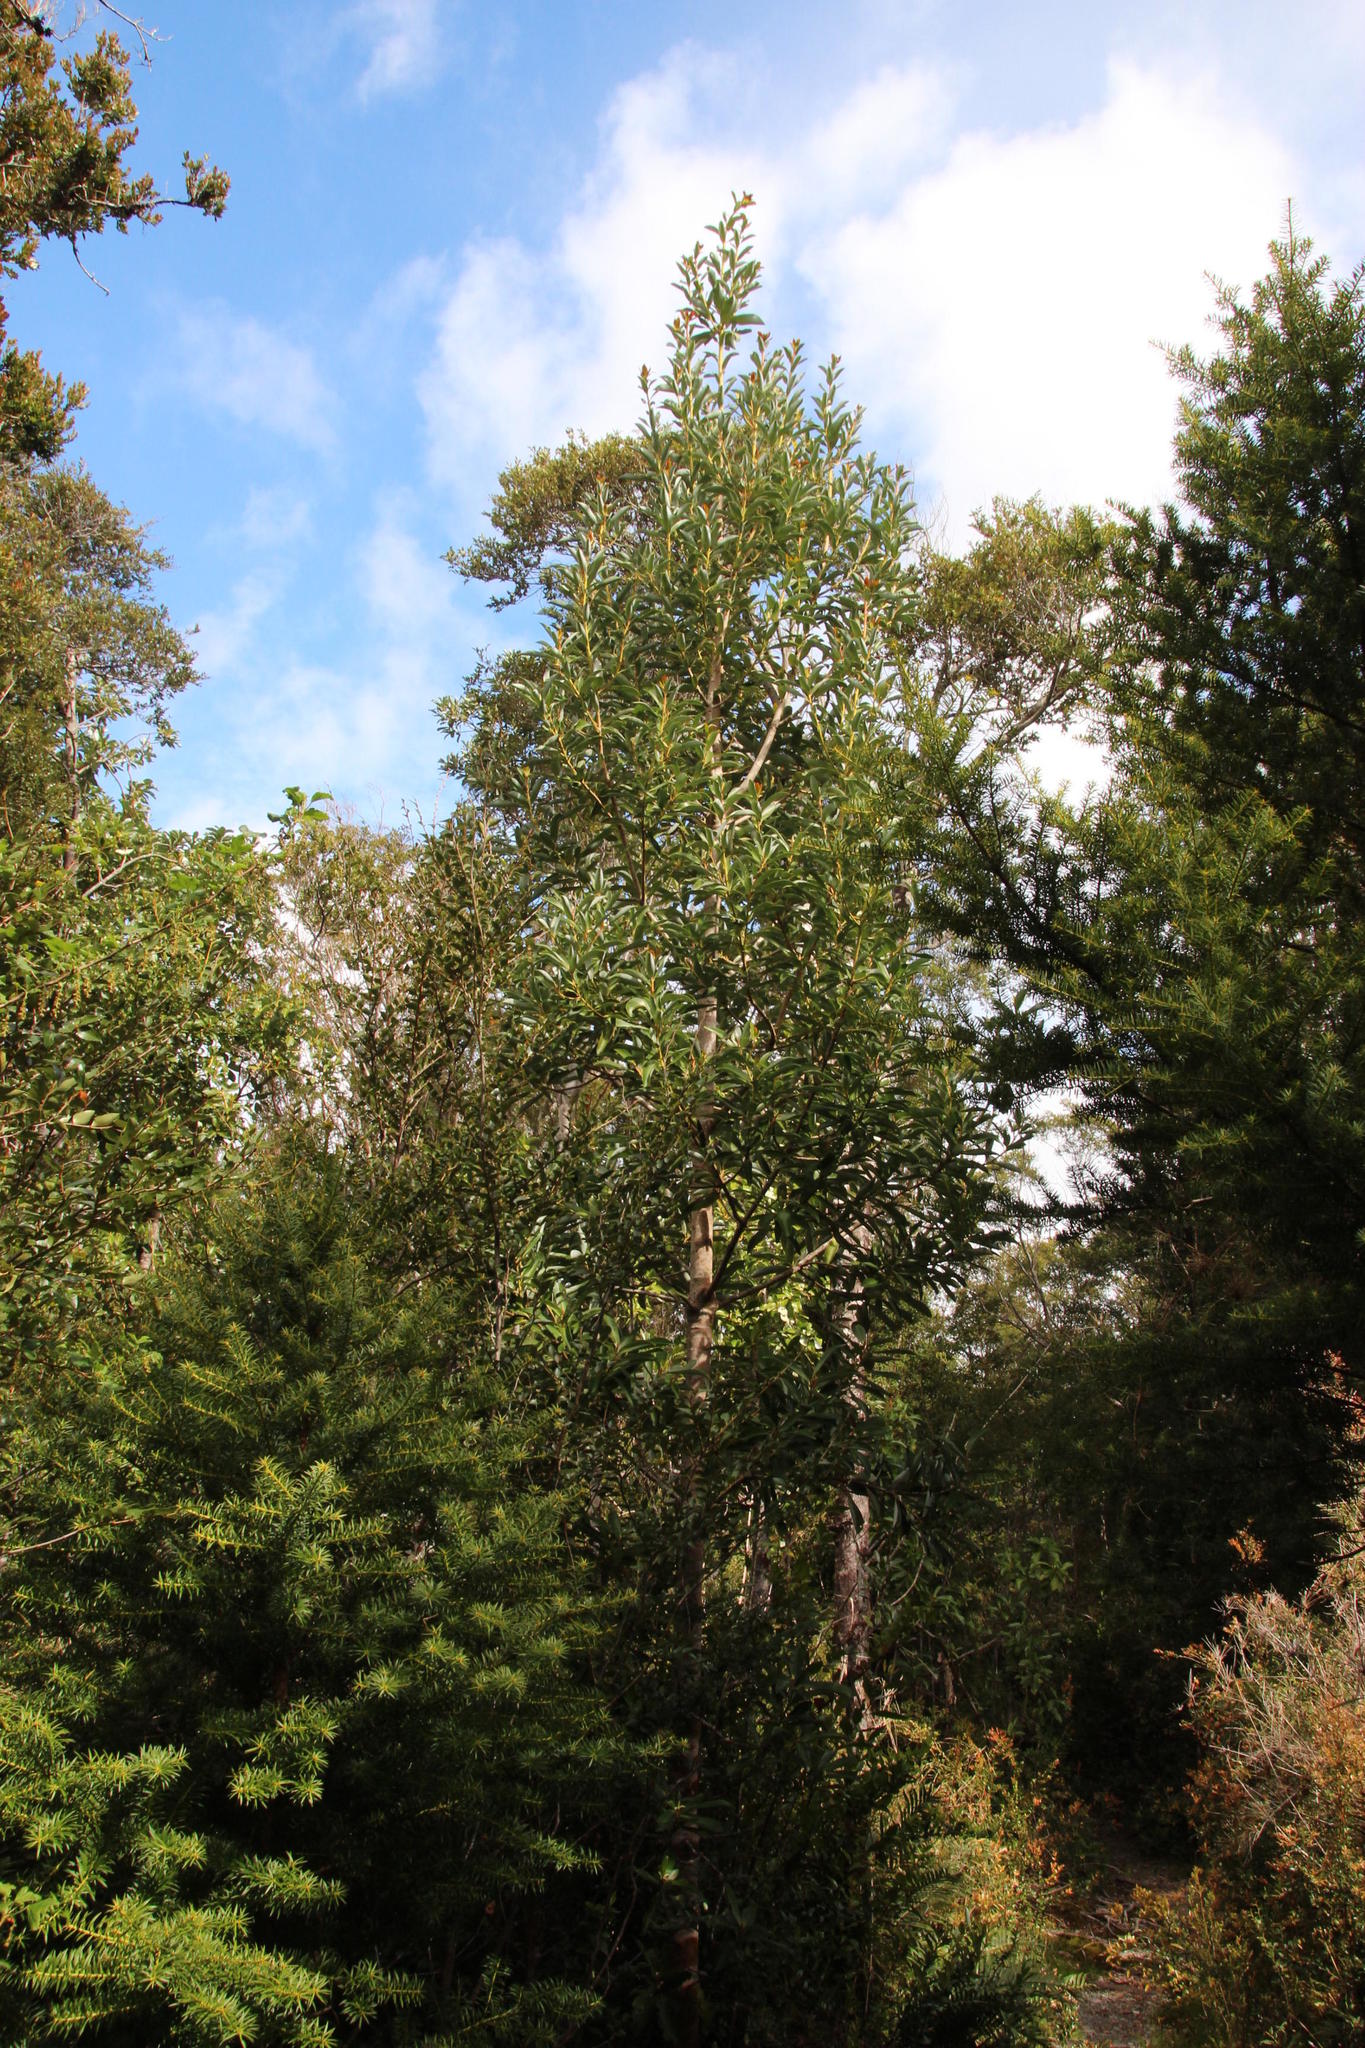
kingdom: Plantae
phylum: Tracheophyta
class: Magnoliopsida
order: Canellales
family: Winteraceae
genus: Drimys
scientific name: Drimys winteri
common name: Winter's-bark
